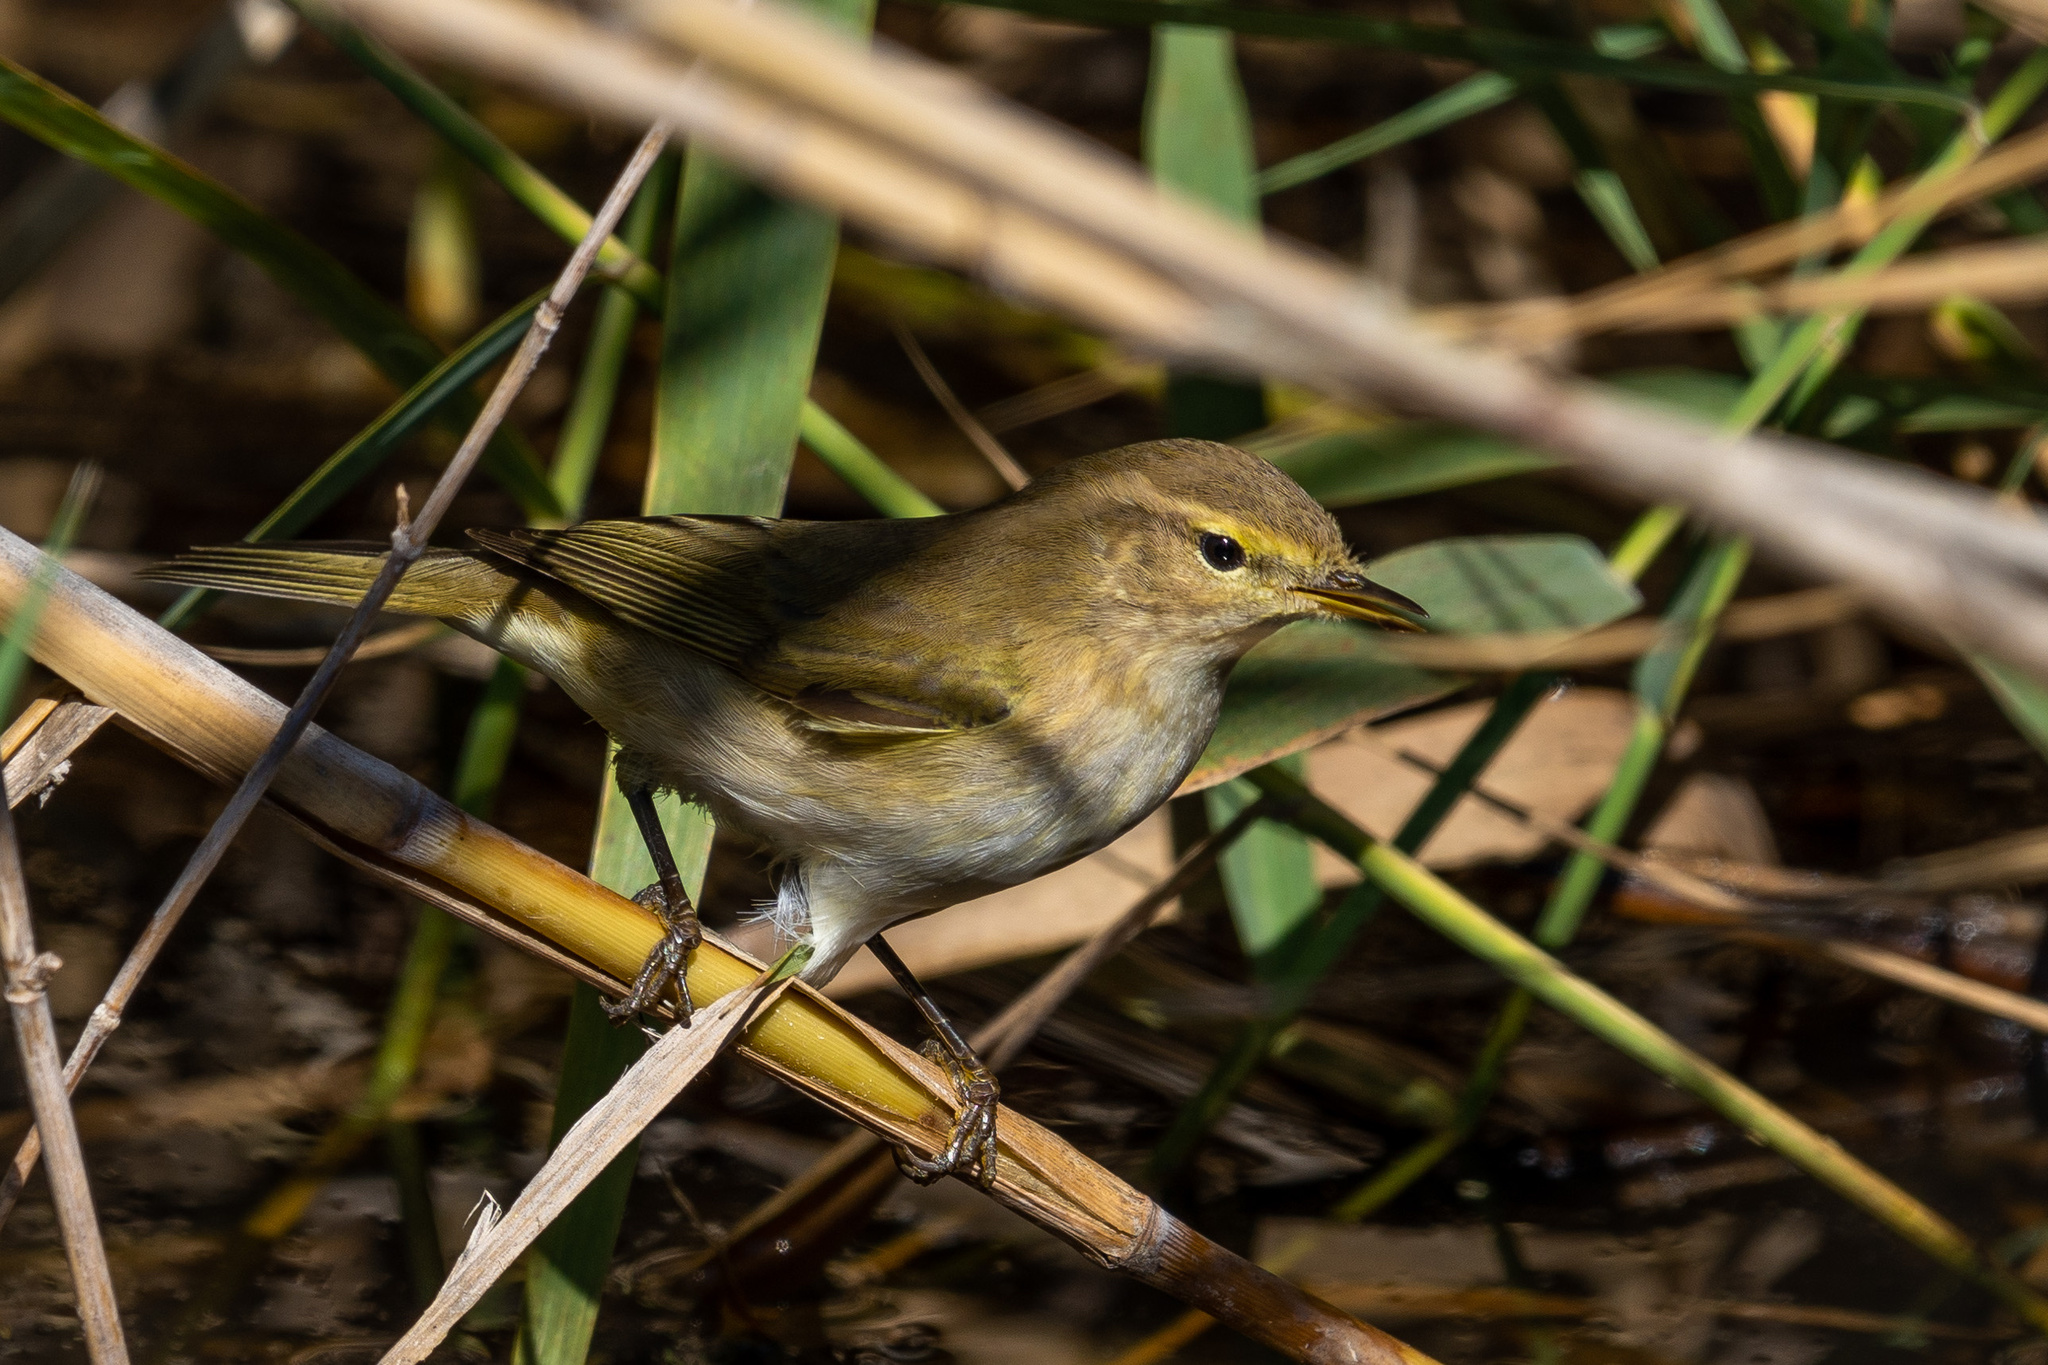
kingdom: Animalia
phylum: Chordata
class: Aves
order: Passeriformes
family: Phylloscopidae
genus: Phylloscopus
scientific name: Phylloscopus collybita
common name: Common chiffchaff
